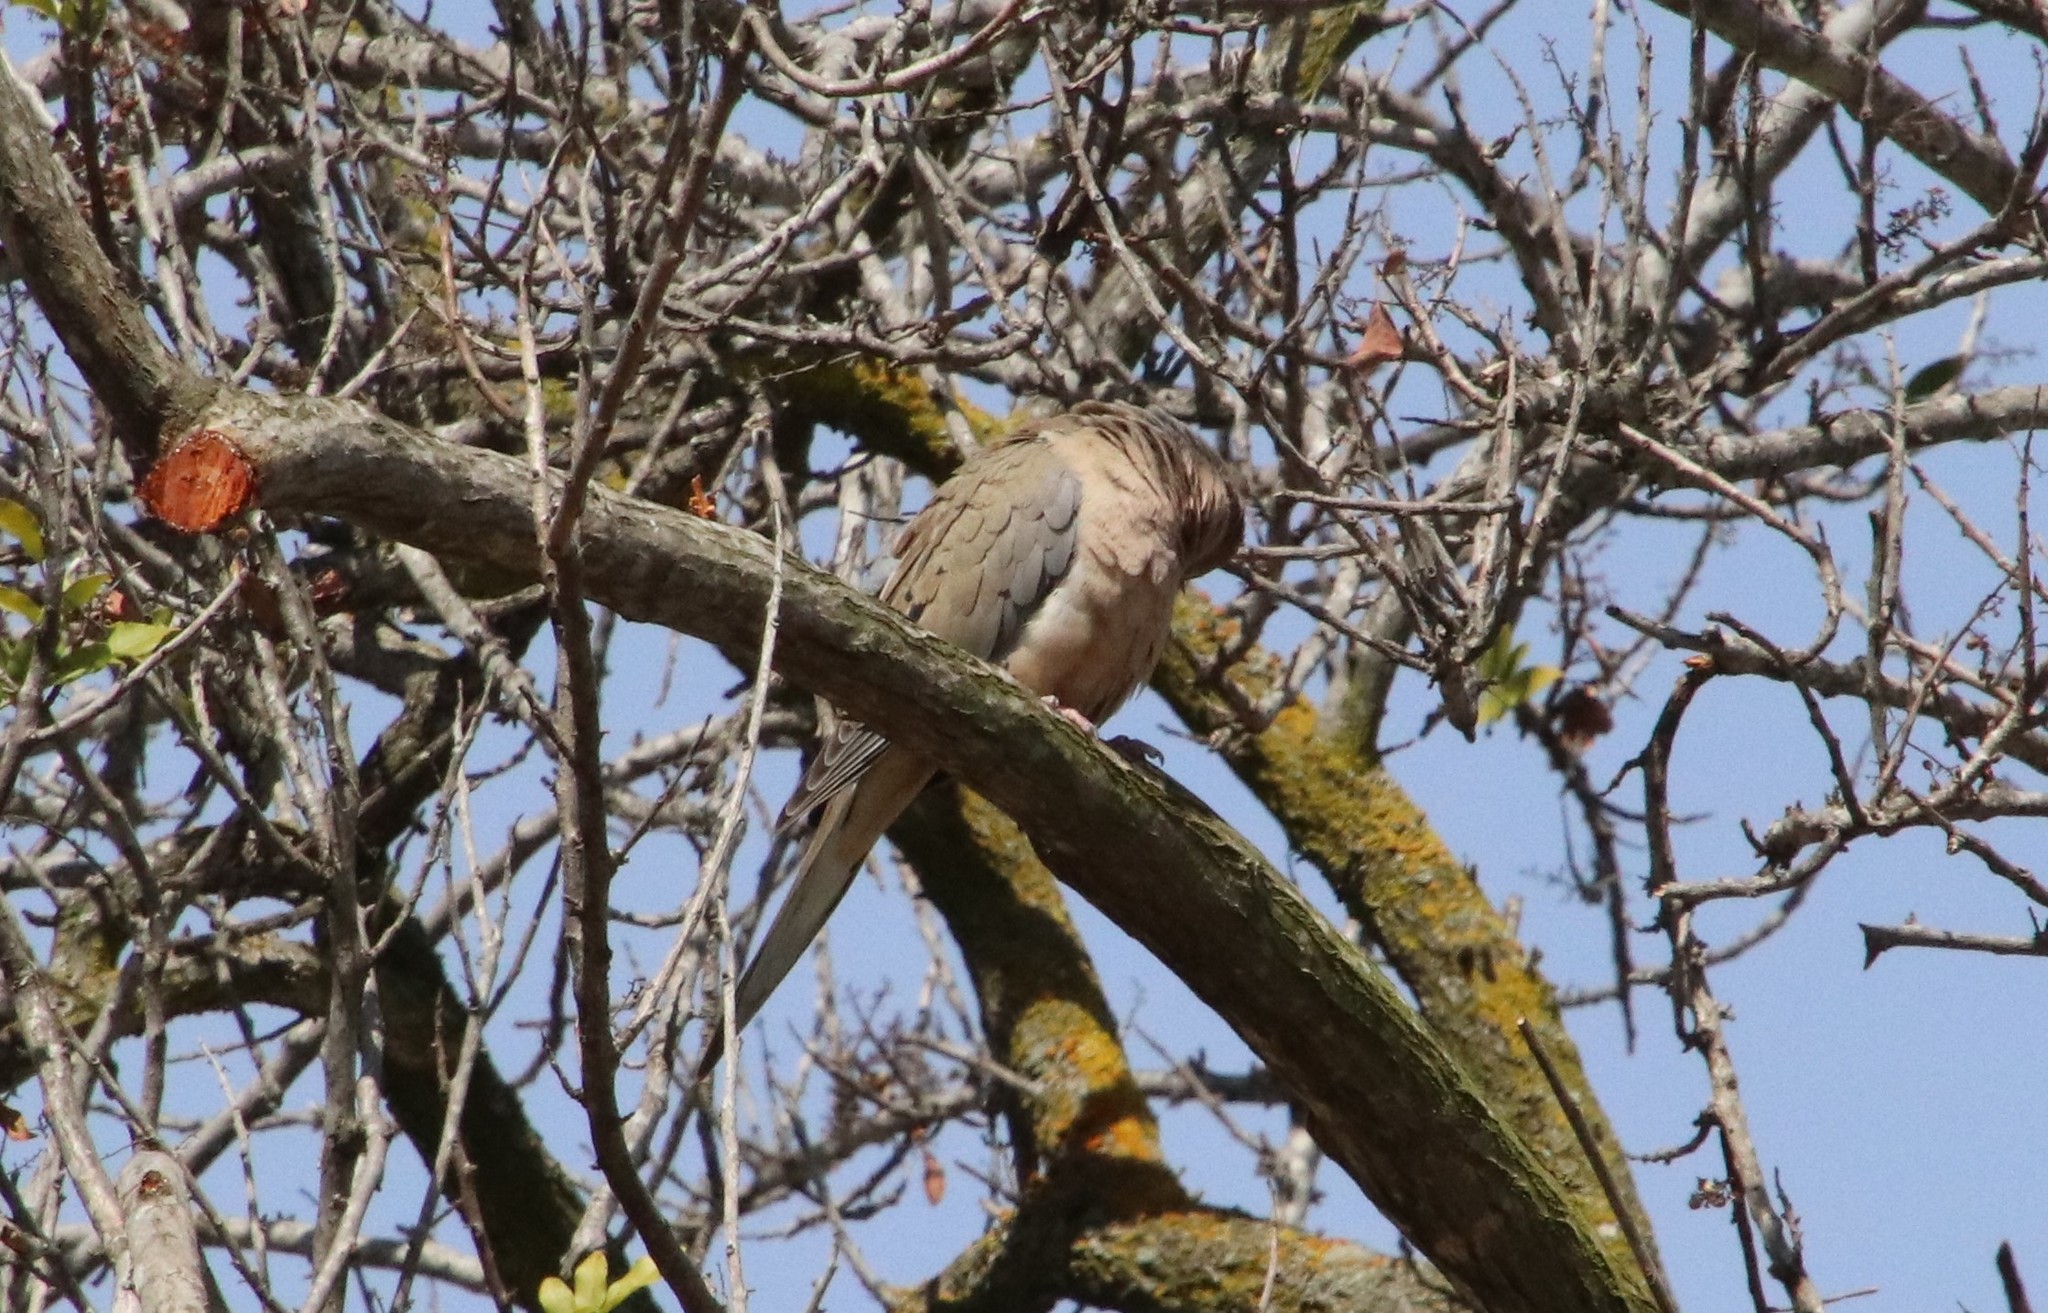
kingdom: Animalia
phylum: Chordata
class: Aves
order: Columbiformes
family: Columbidae
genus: Zenaida
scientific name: Zenaida macroura
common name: Mourning dove
